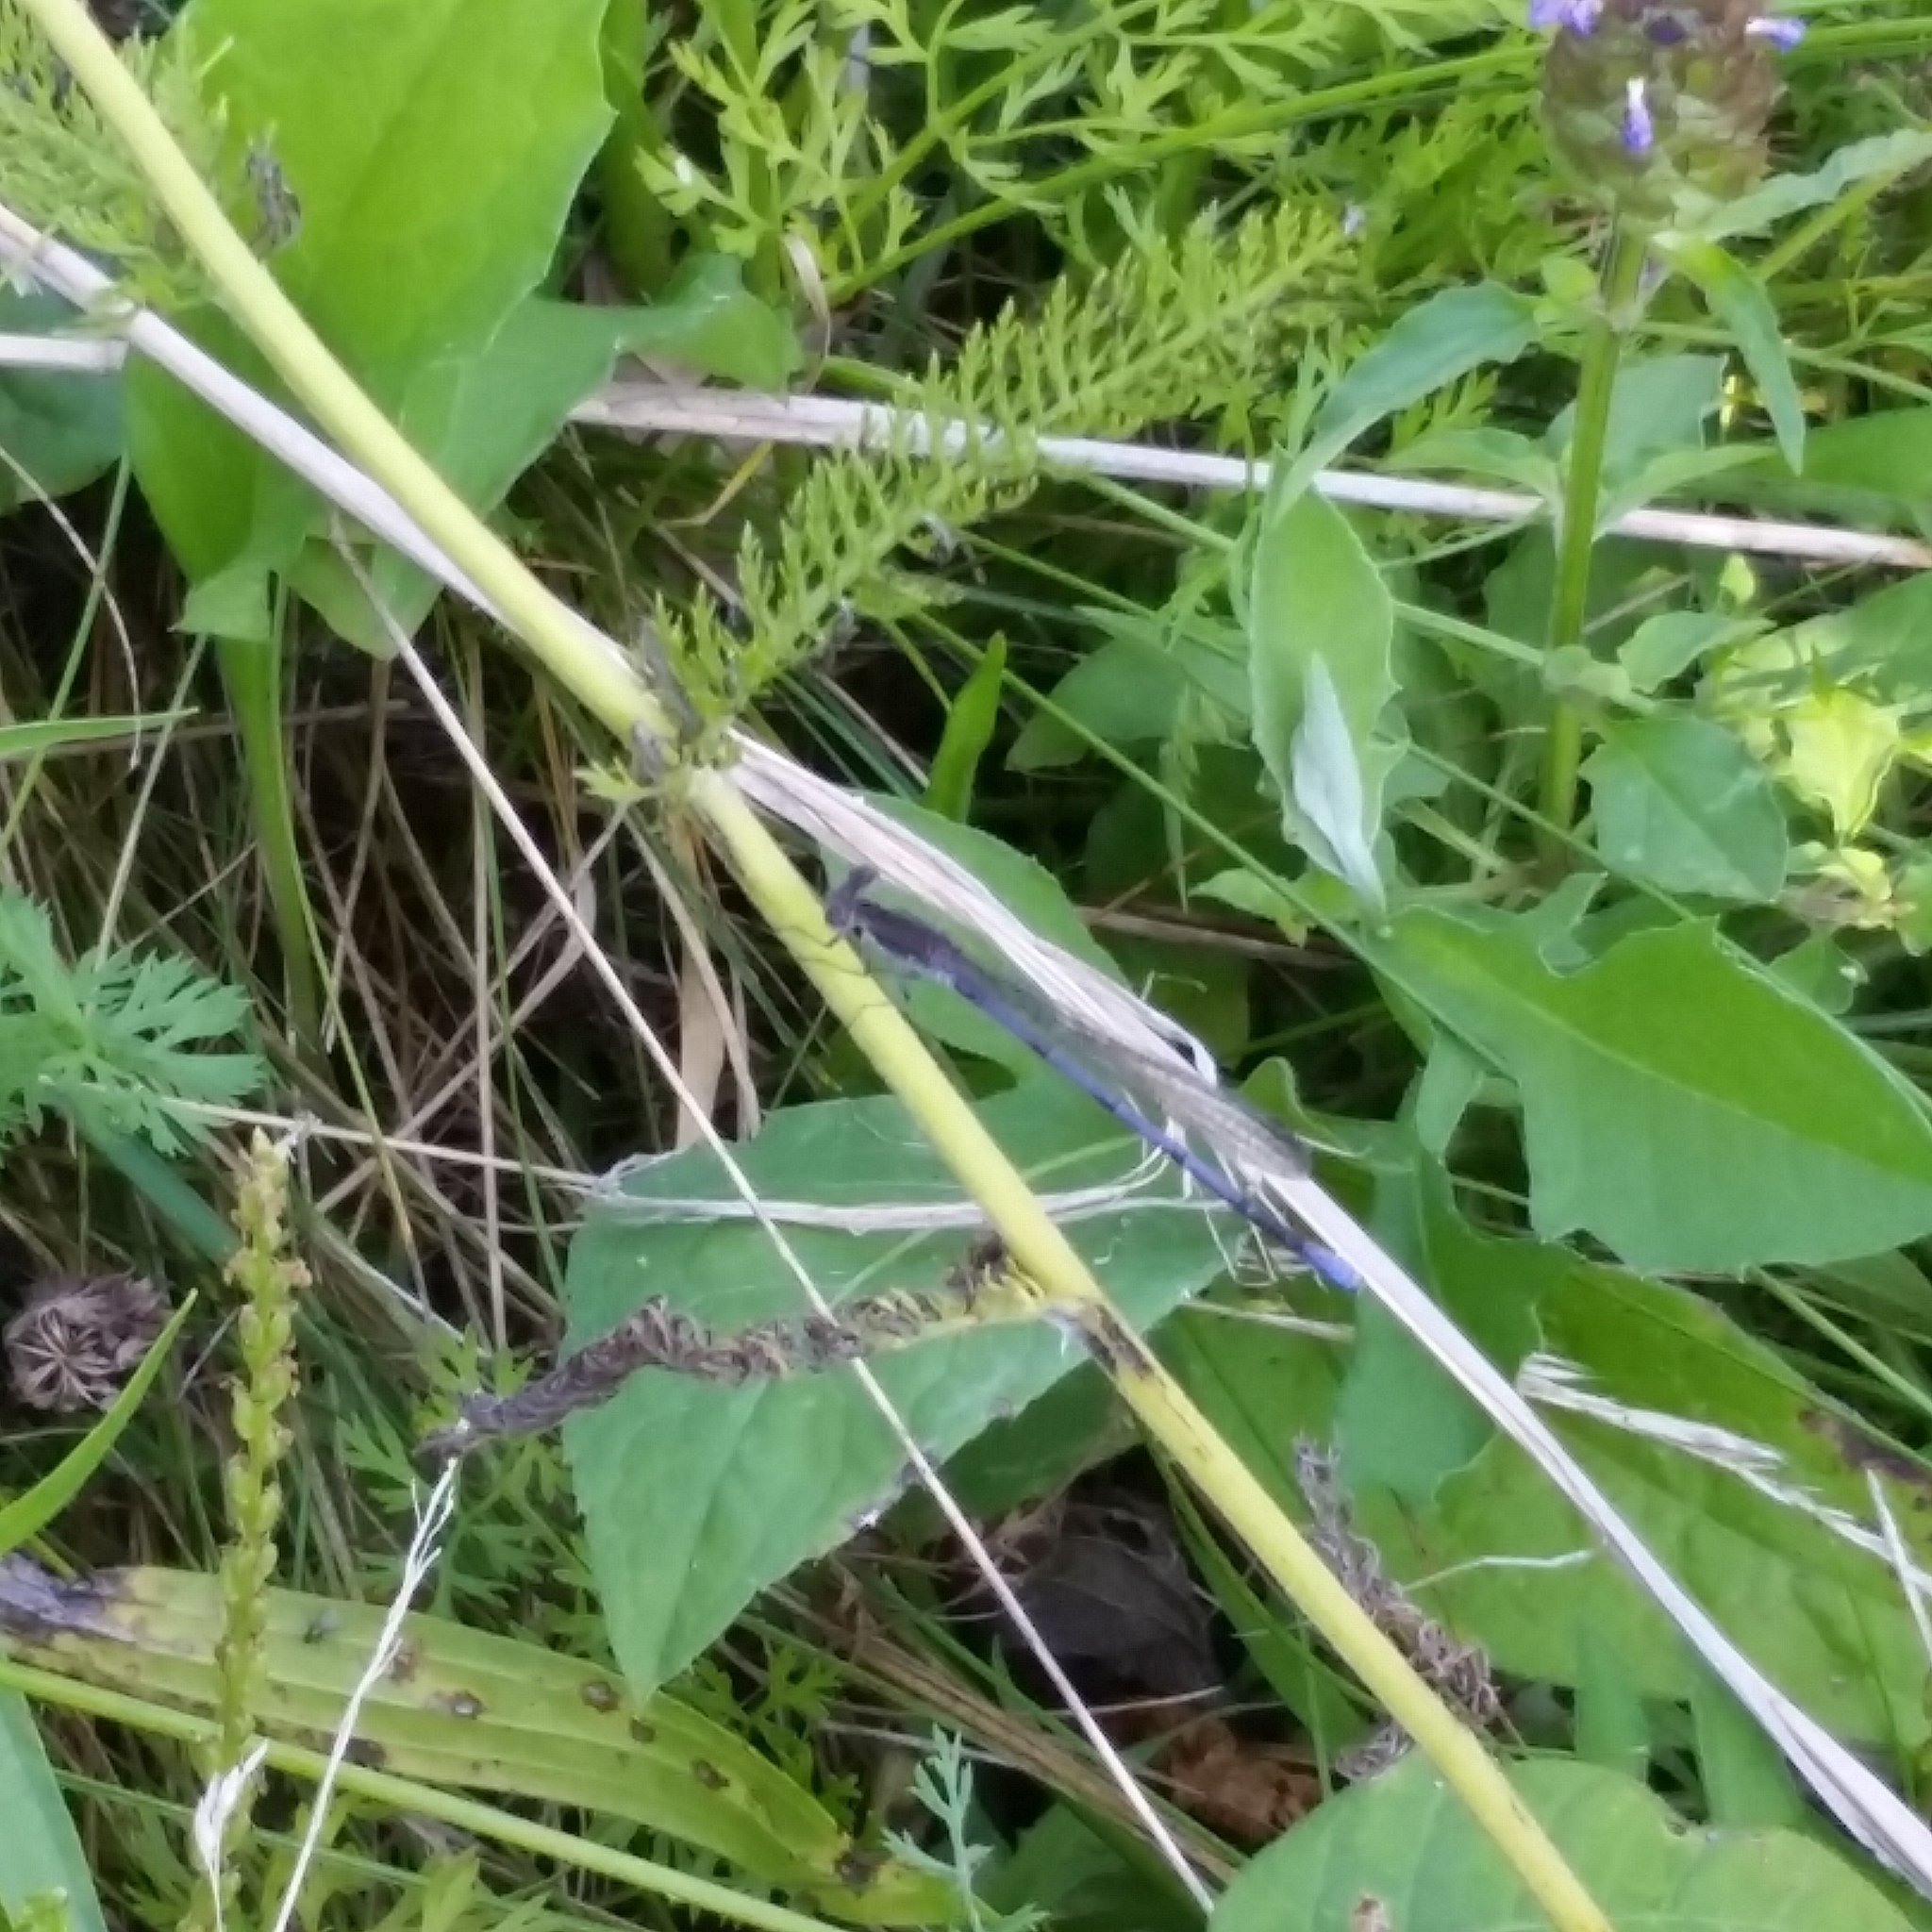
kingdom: Animalia
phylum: Arthropoda
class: Insecta
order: Odonata
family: Coenagrionidae
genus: Argia
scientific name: Argia fumipennis
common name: Variable dancer
